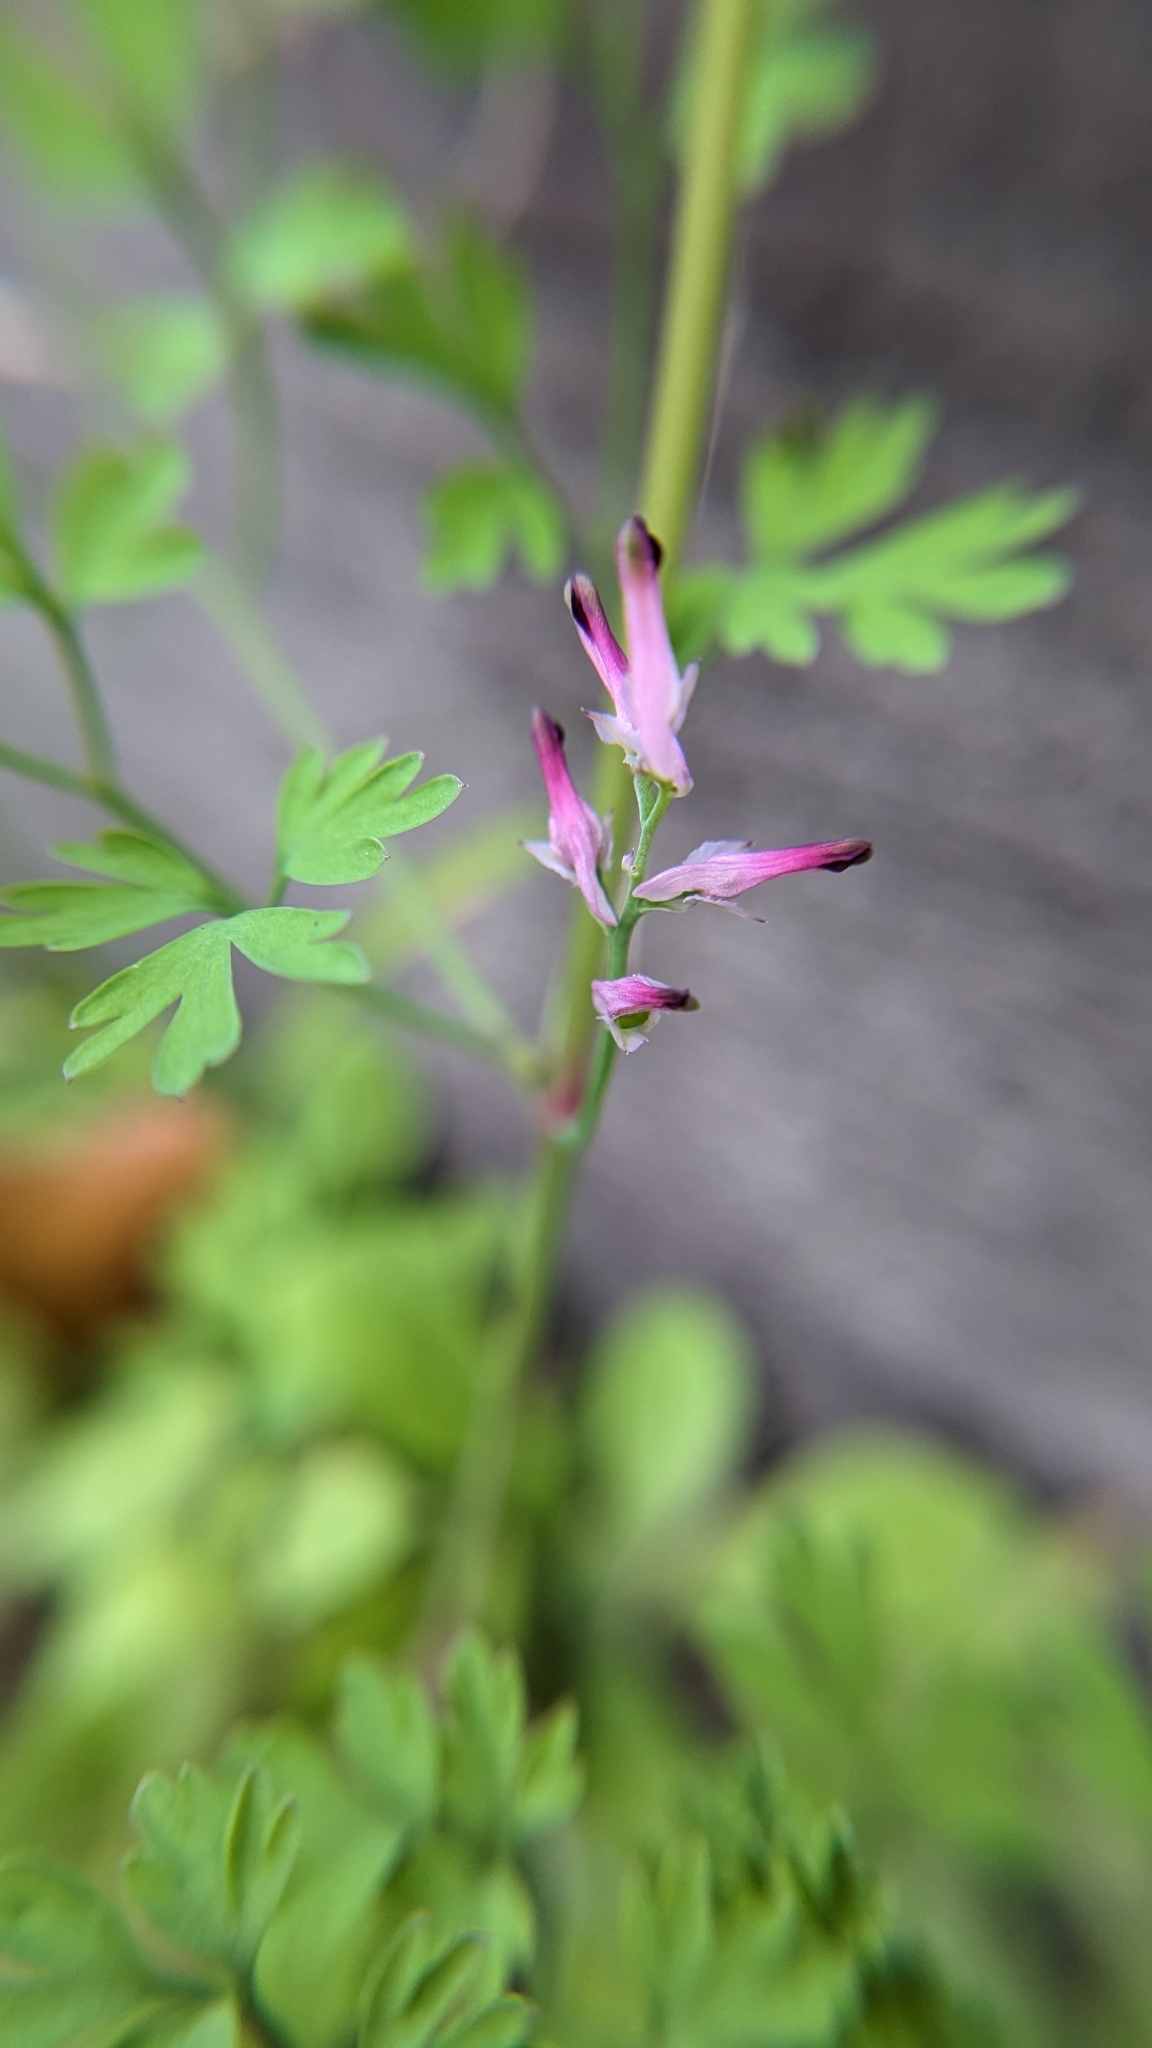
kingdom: Plantae
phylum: Tracheophyta
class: Magnoliopsida
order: Ranunculales
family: Papaveraceae
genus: Fumaria
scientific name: Fumaria muralis
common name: Common ramping-fumitory
